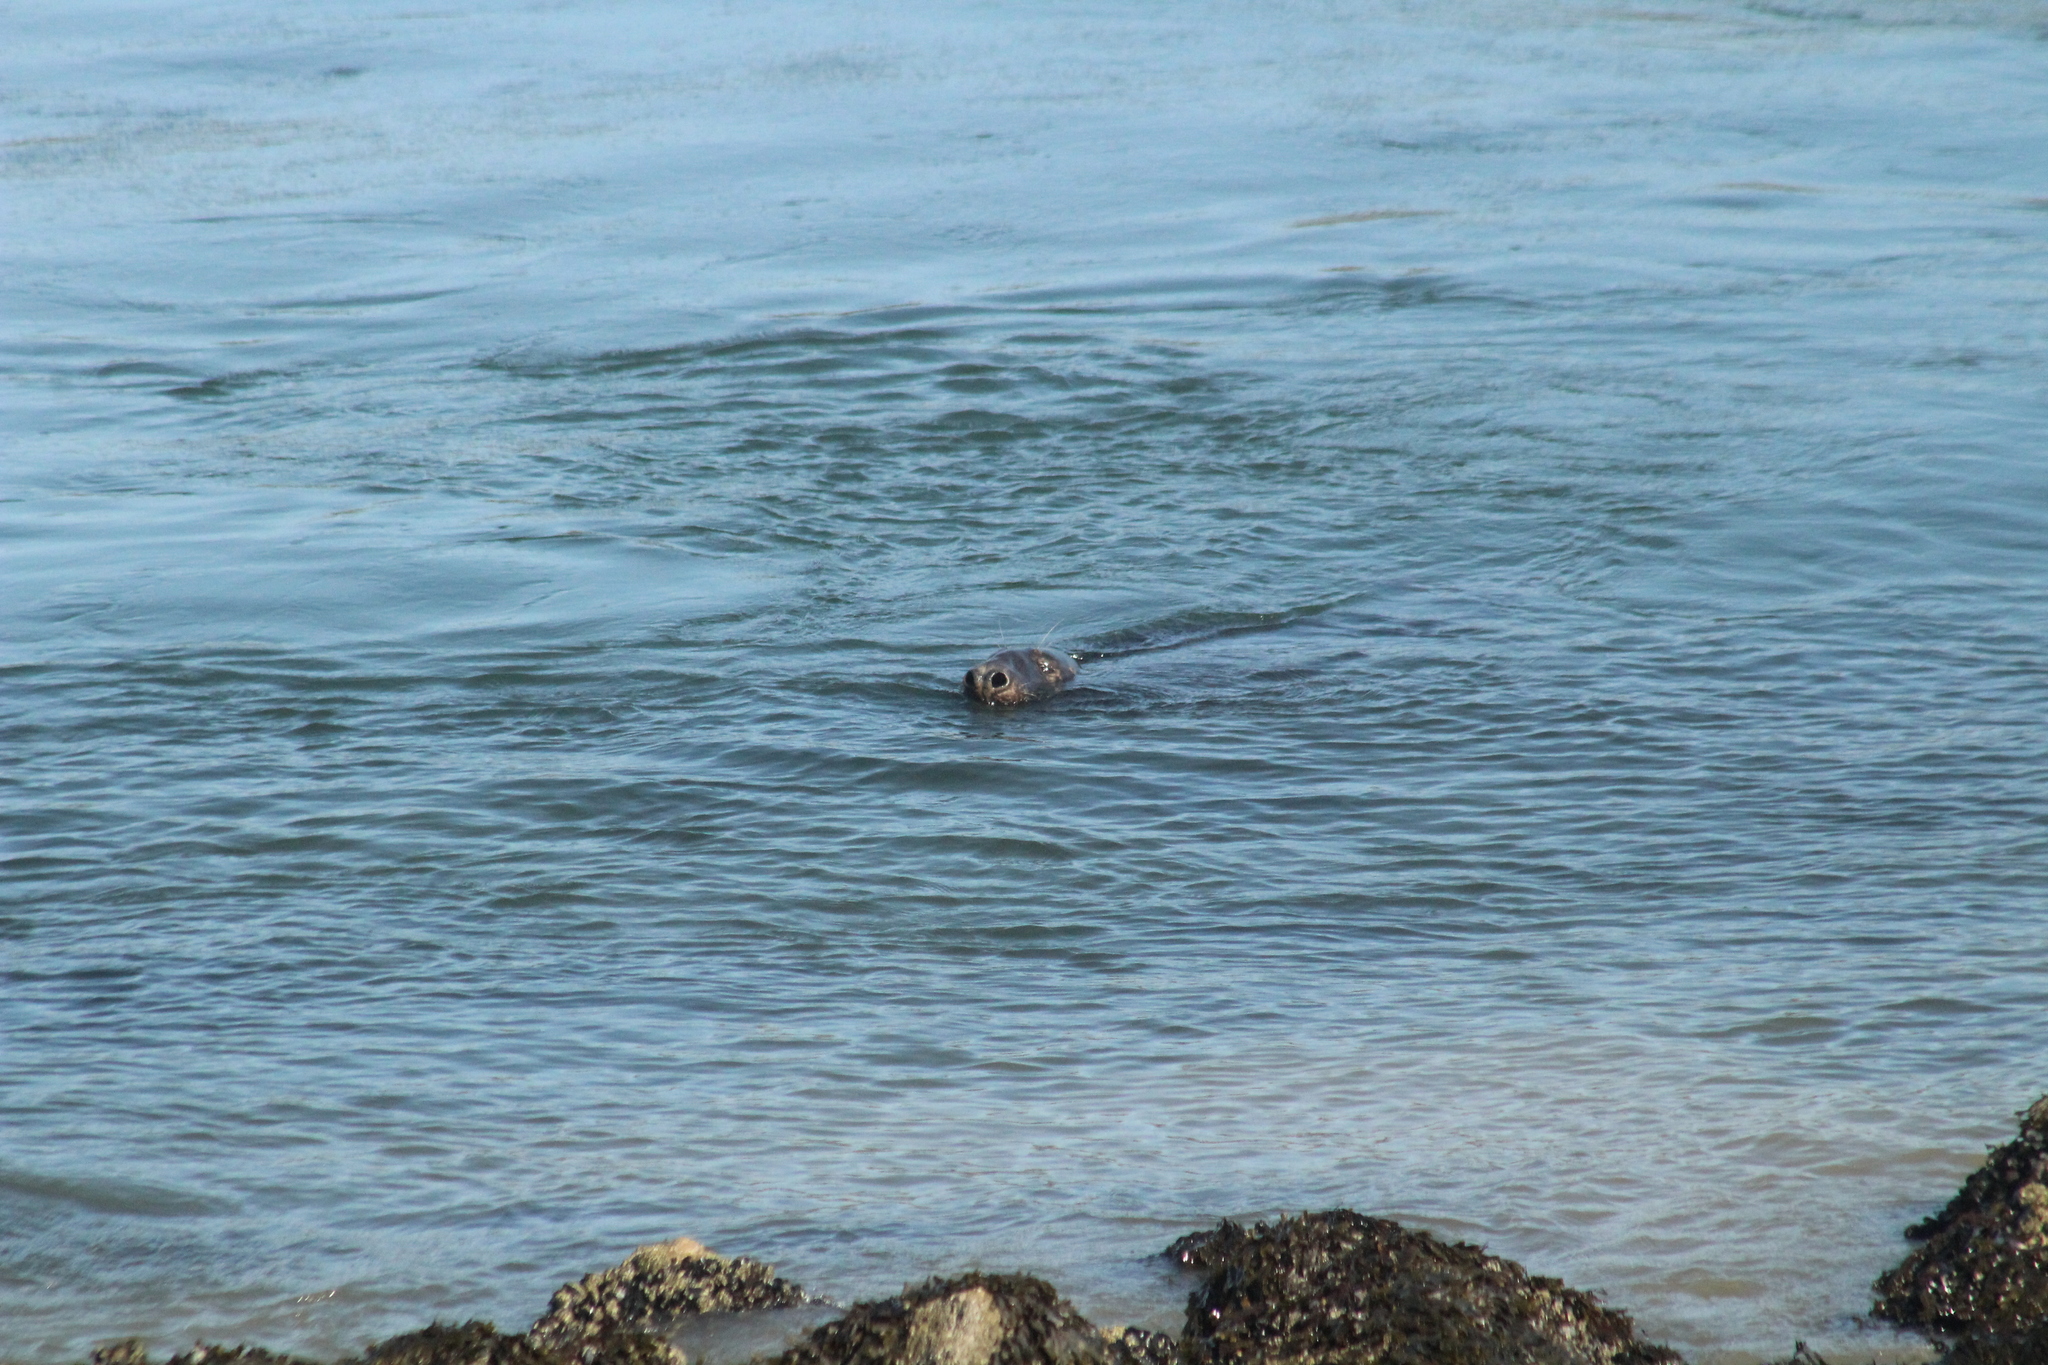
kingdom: Animalia
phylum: Chordata
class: Mammalia
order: Carnivora
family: Phocidae
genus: Halichoerus
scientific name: Halichoerus grypus
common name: Grey seal
